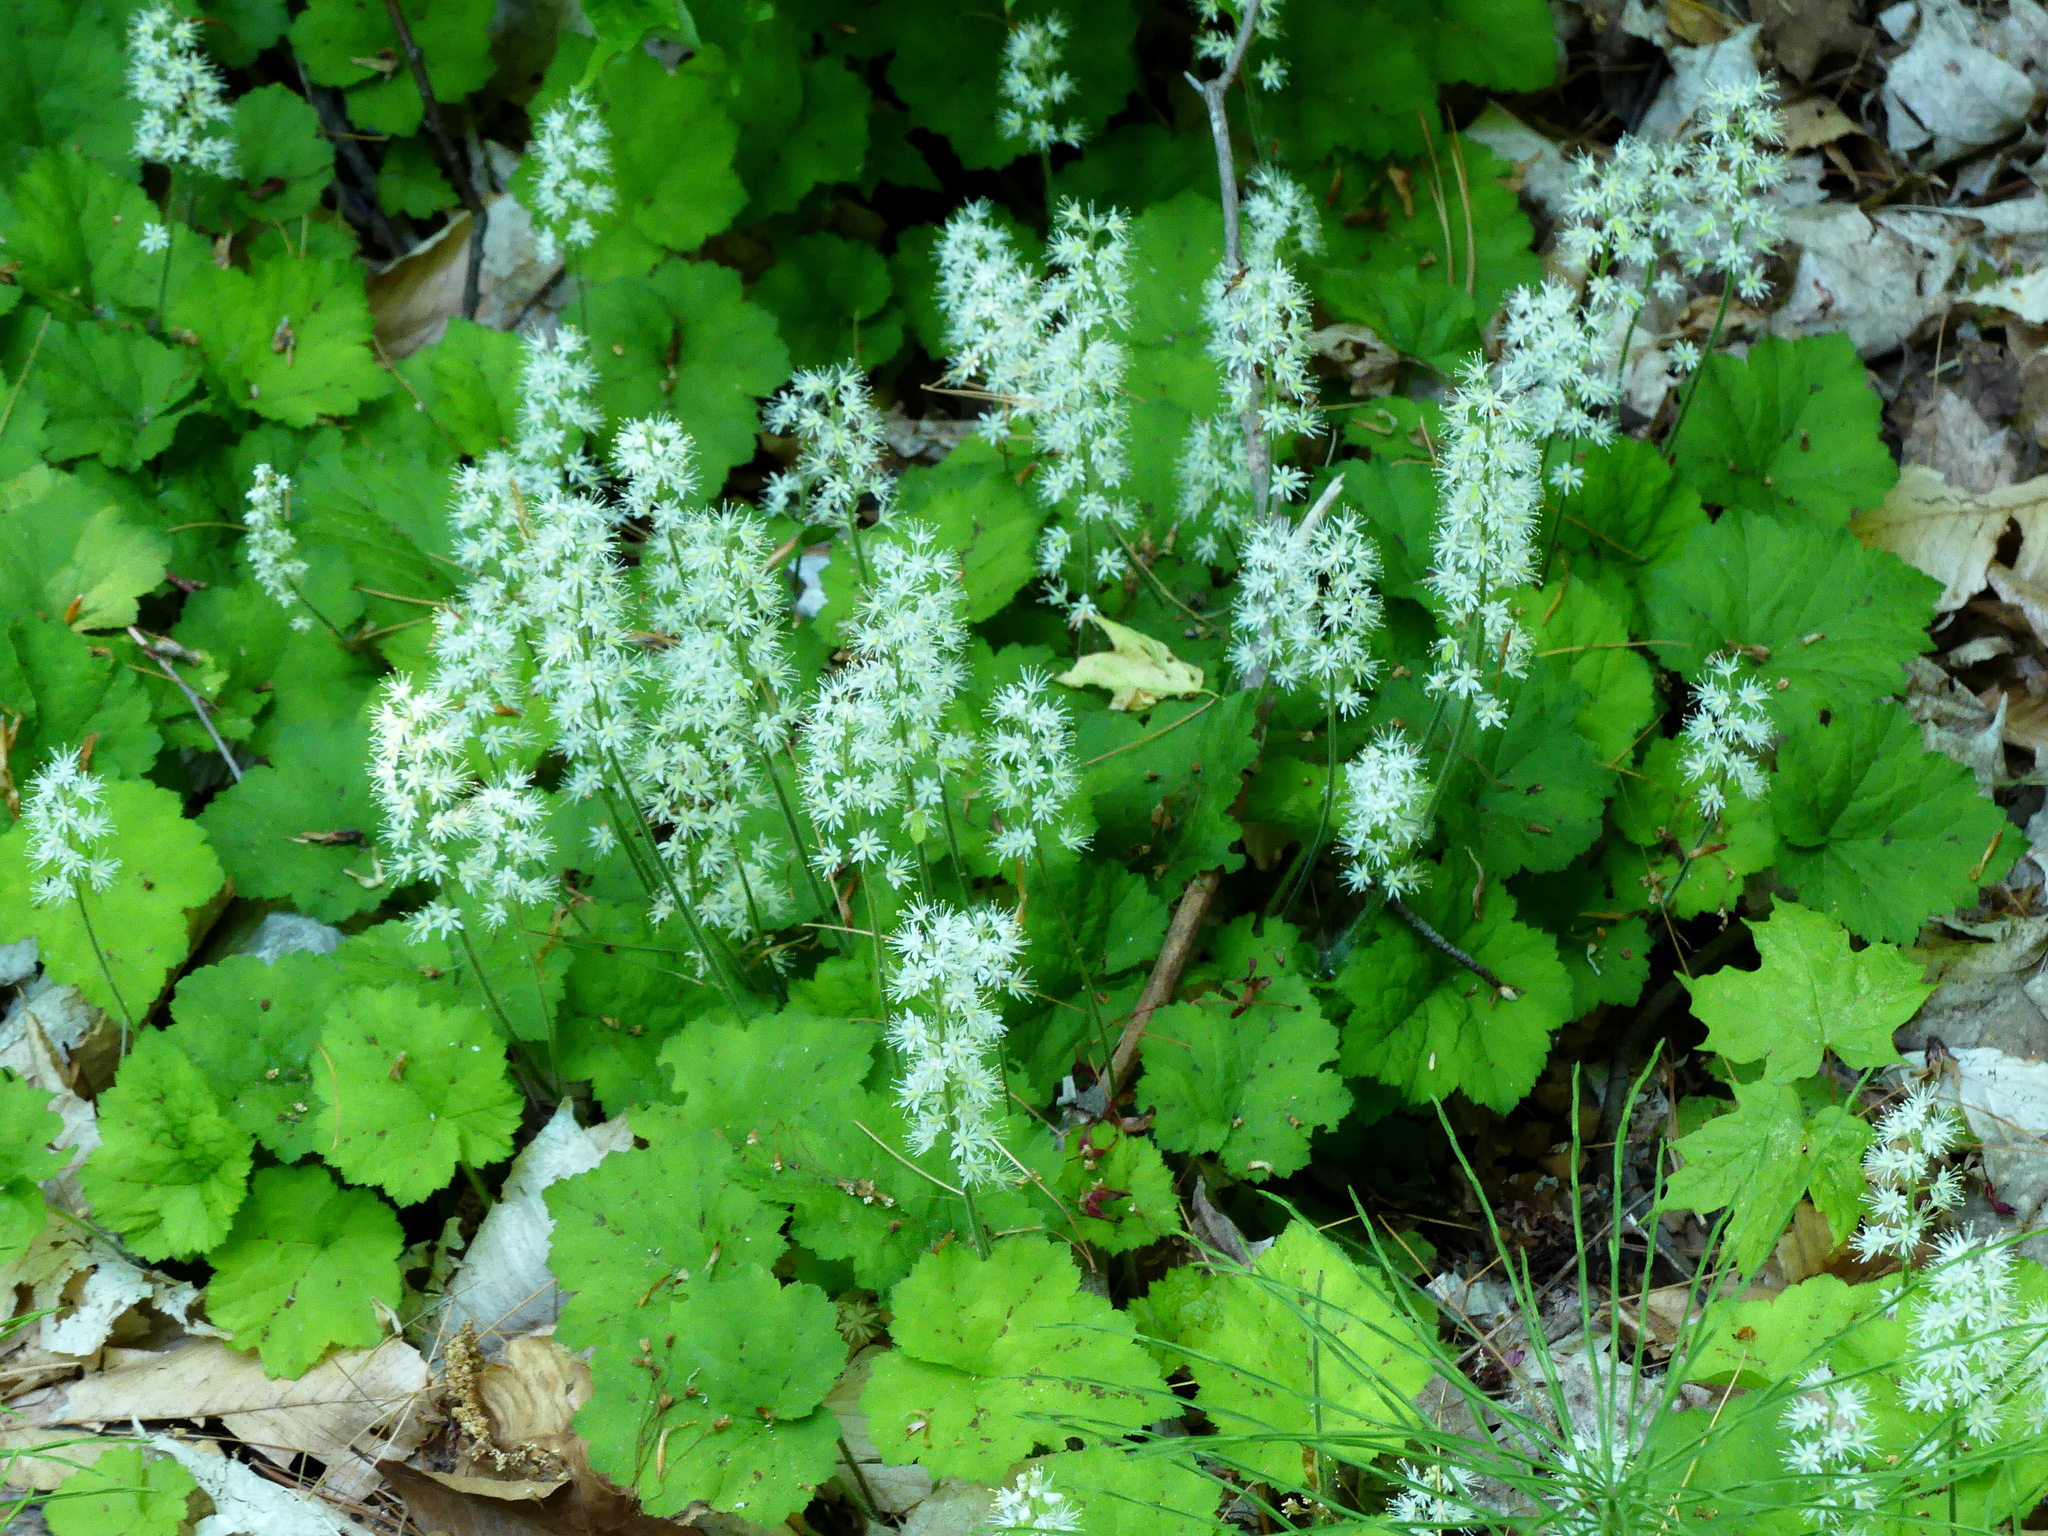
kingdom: Plantae
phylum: Tracheophyta
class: Magnoliopsida
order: Saxifragales
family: Saxifragaceae
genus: Tiarella
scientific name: Tiarella stolonifera
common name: Stoloniferous foamflower
